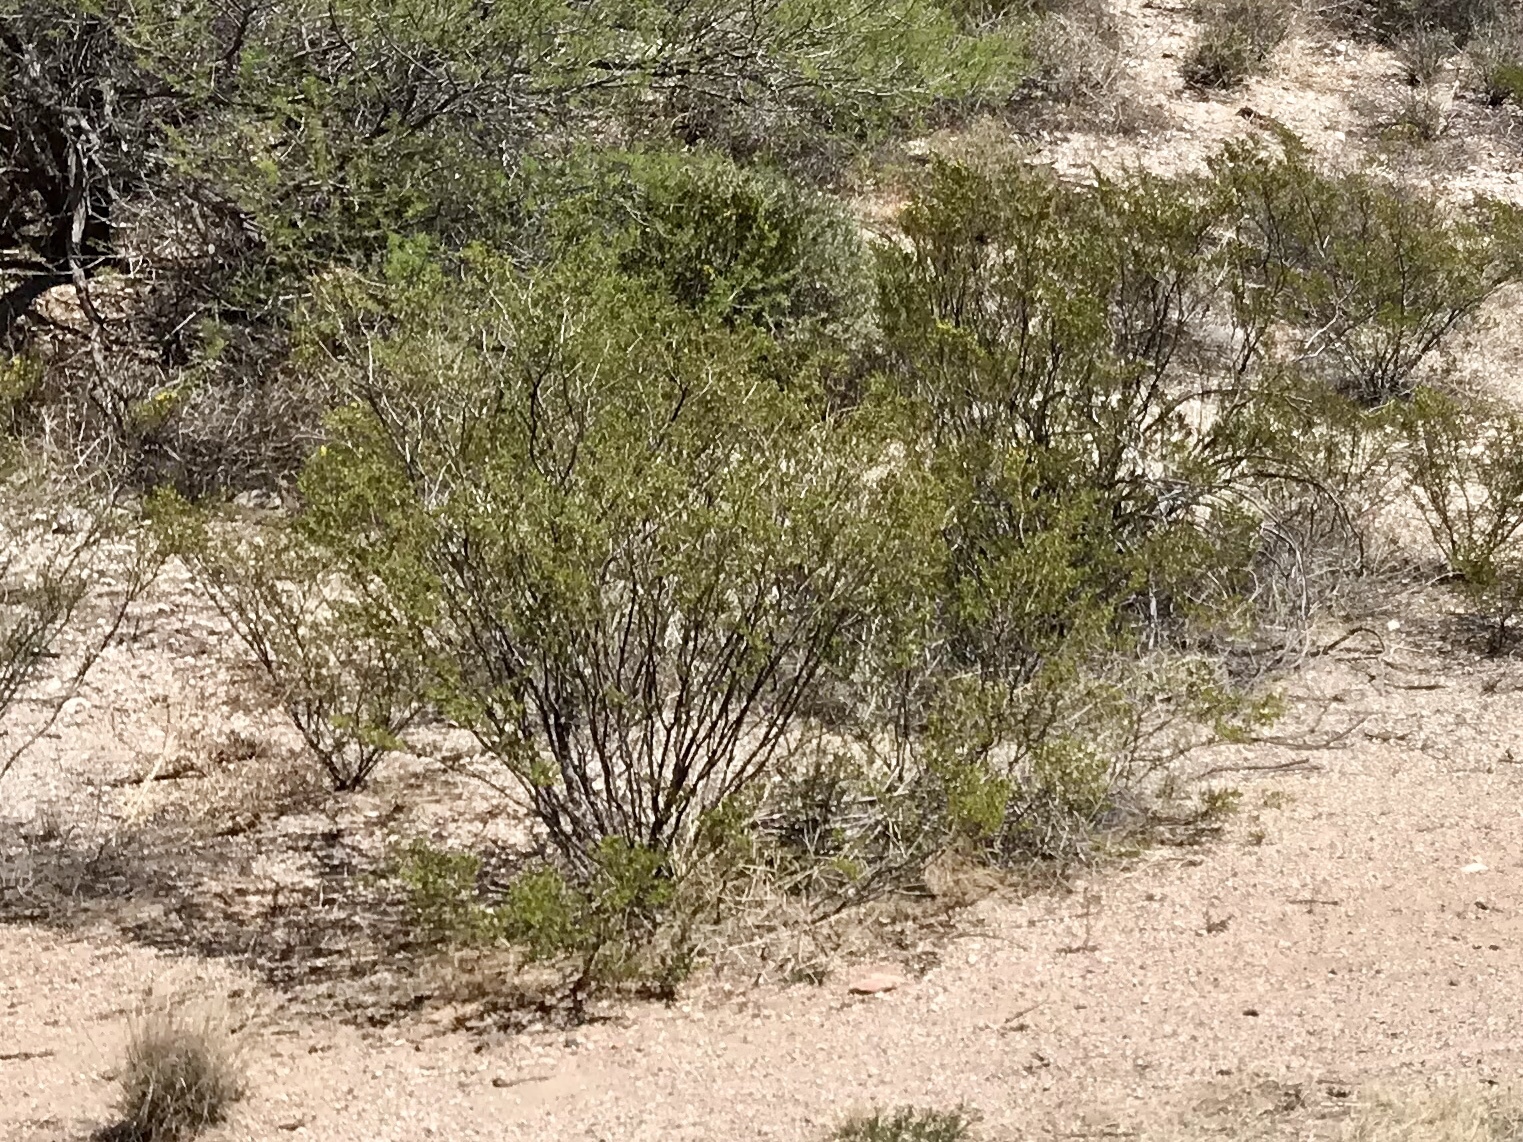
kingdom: Plantae
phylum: Tracheophyta
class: Magnoliopsida
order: Zygophyllales
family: Zygophyllaceae
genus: Larrea
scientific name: Larrea tridentata
